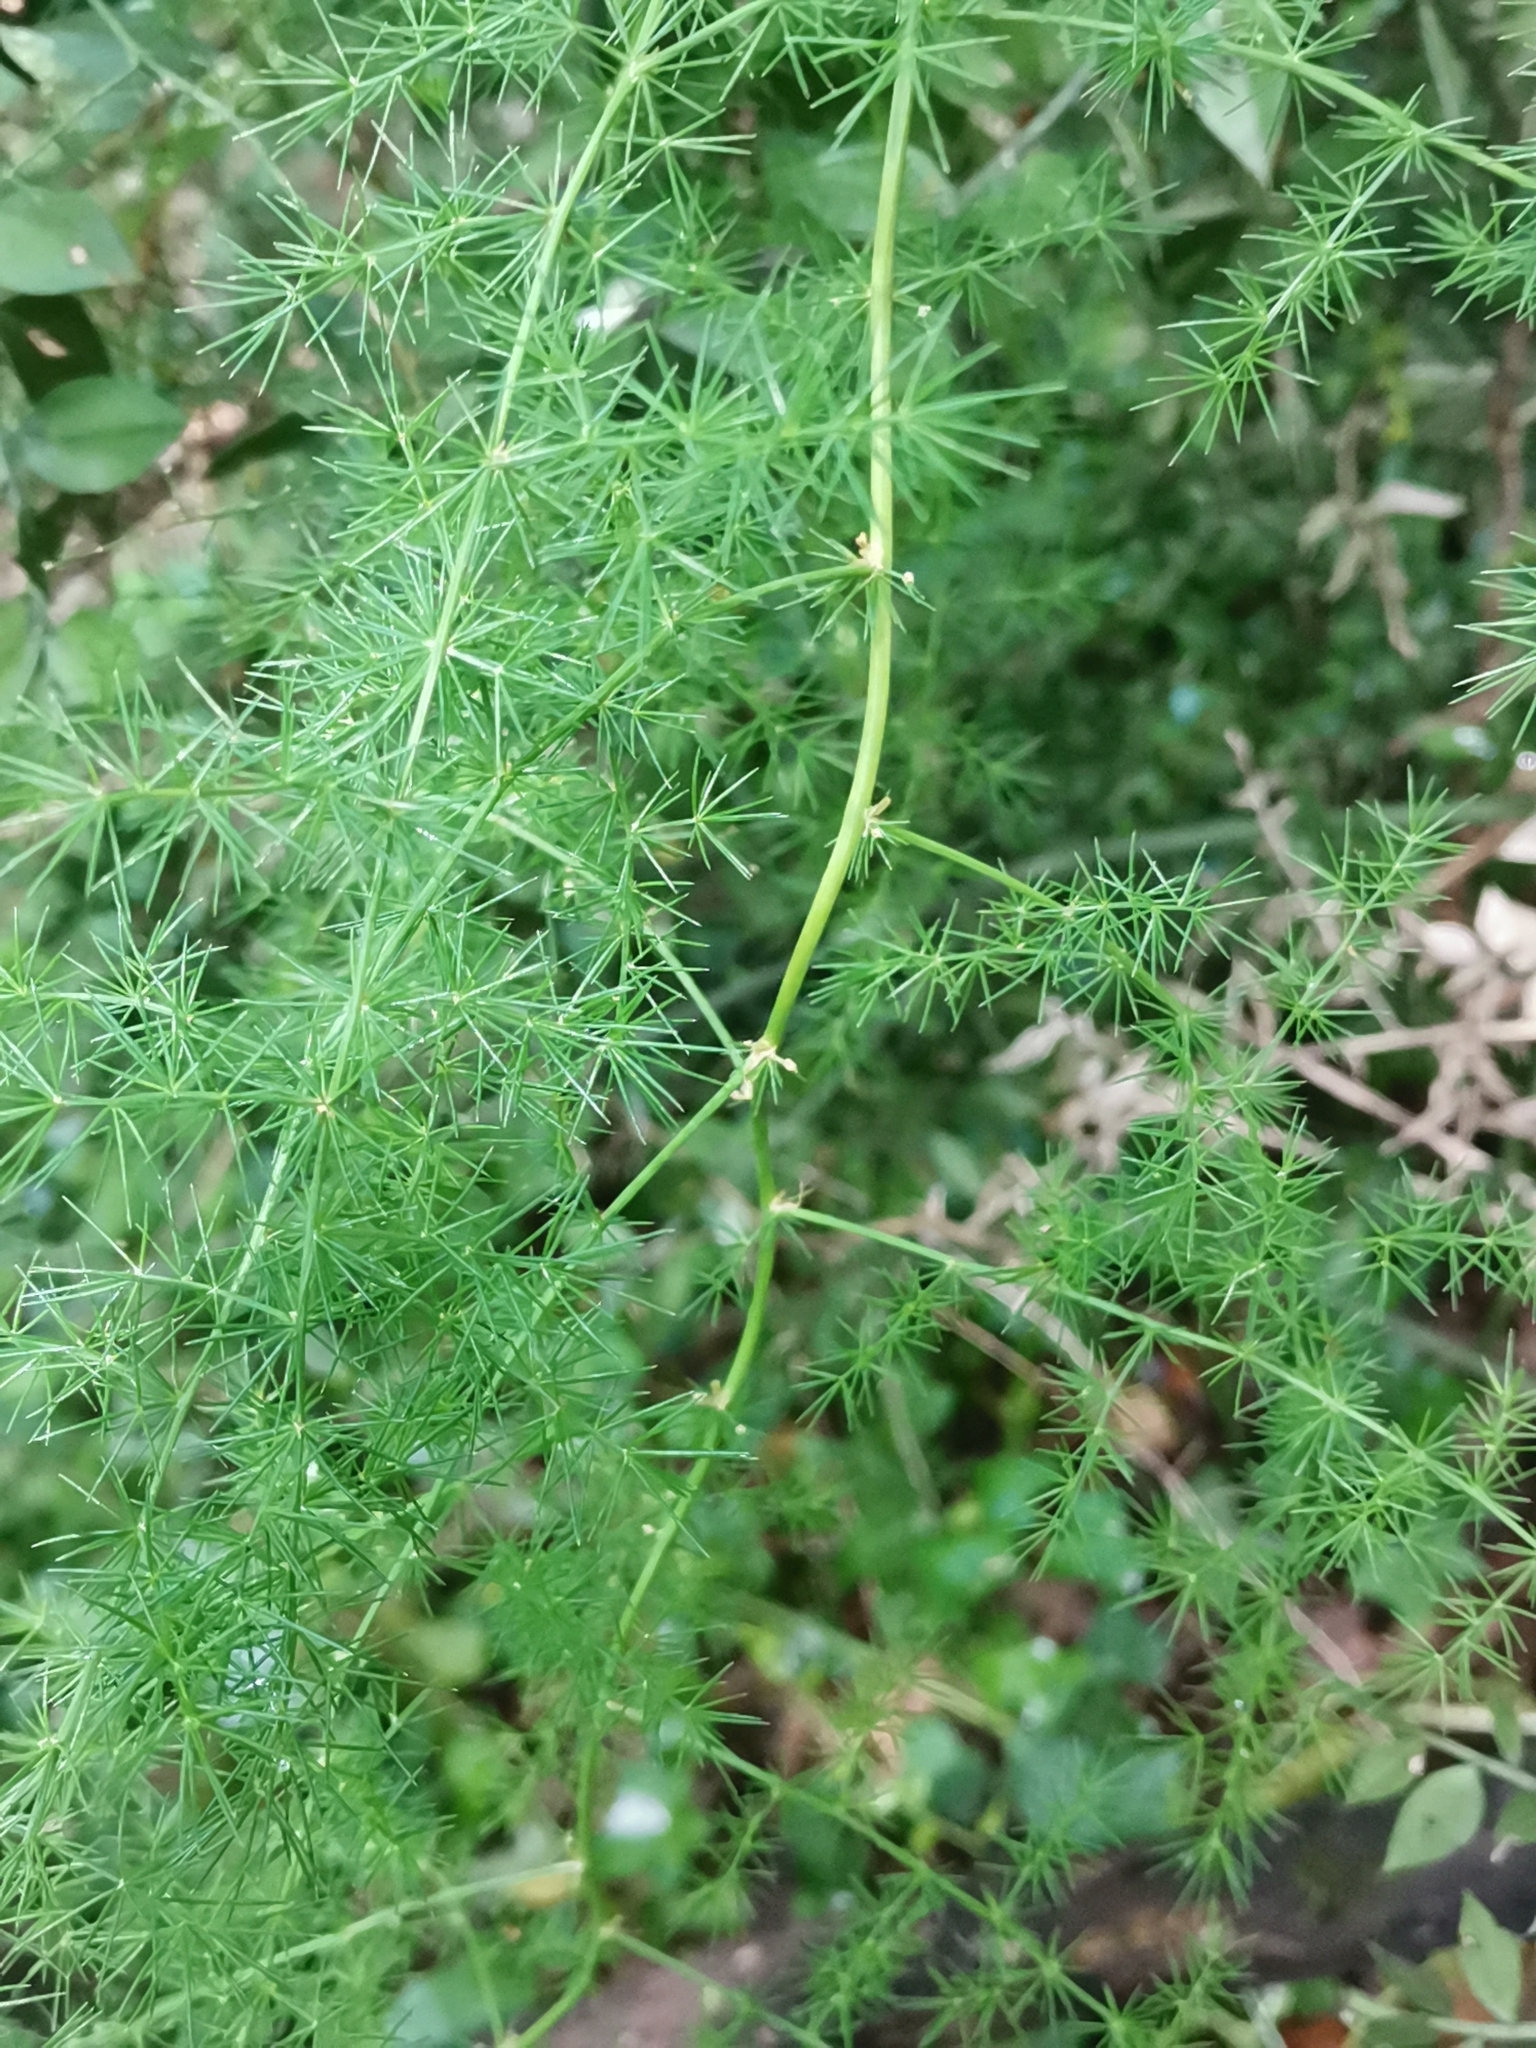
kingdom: Plantae
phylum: Tracheophyta
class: Liliopsida
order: Asparagales
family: Asparagaceae
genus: Asparagus
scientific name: Asparagus acutifolius
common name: Wild asparagus
